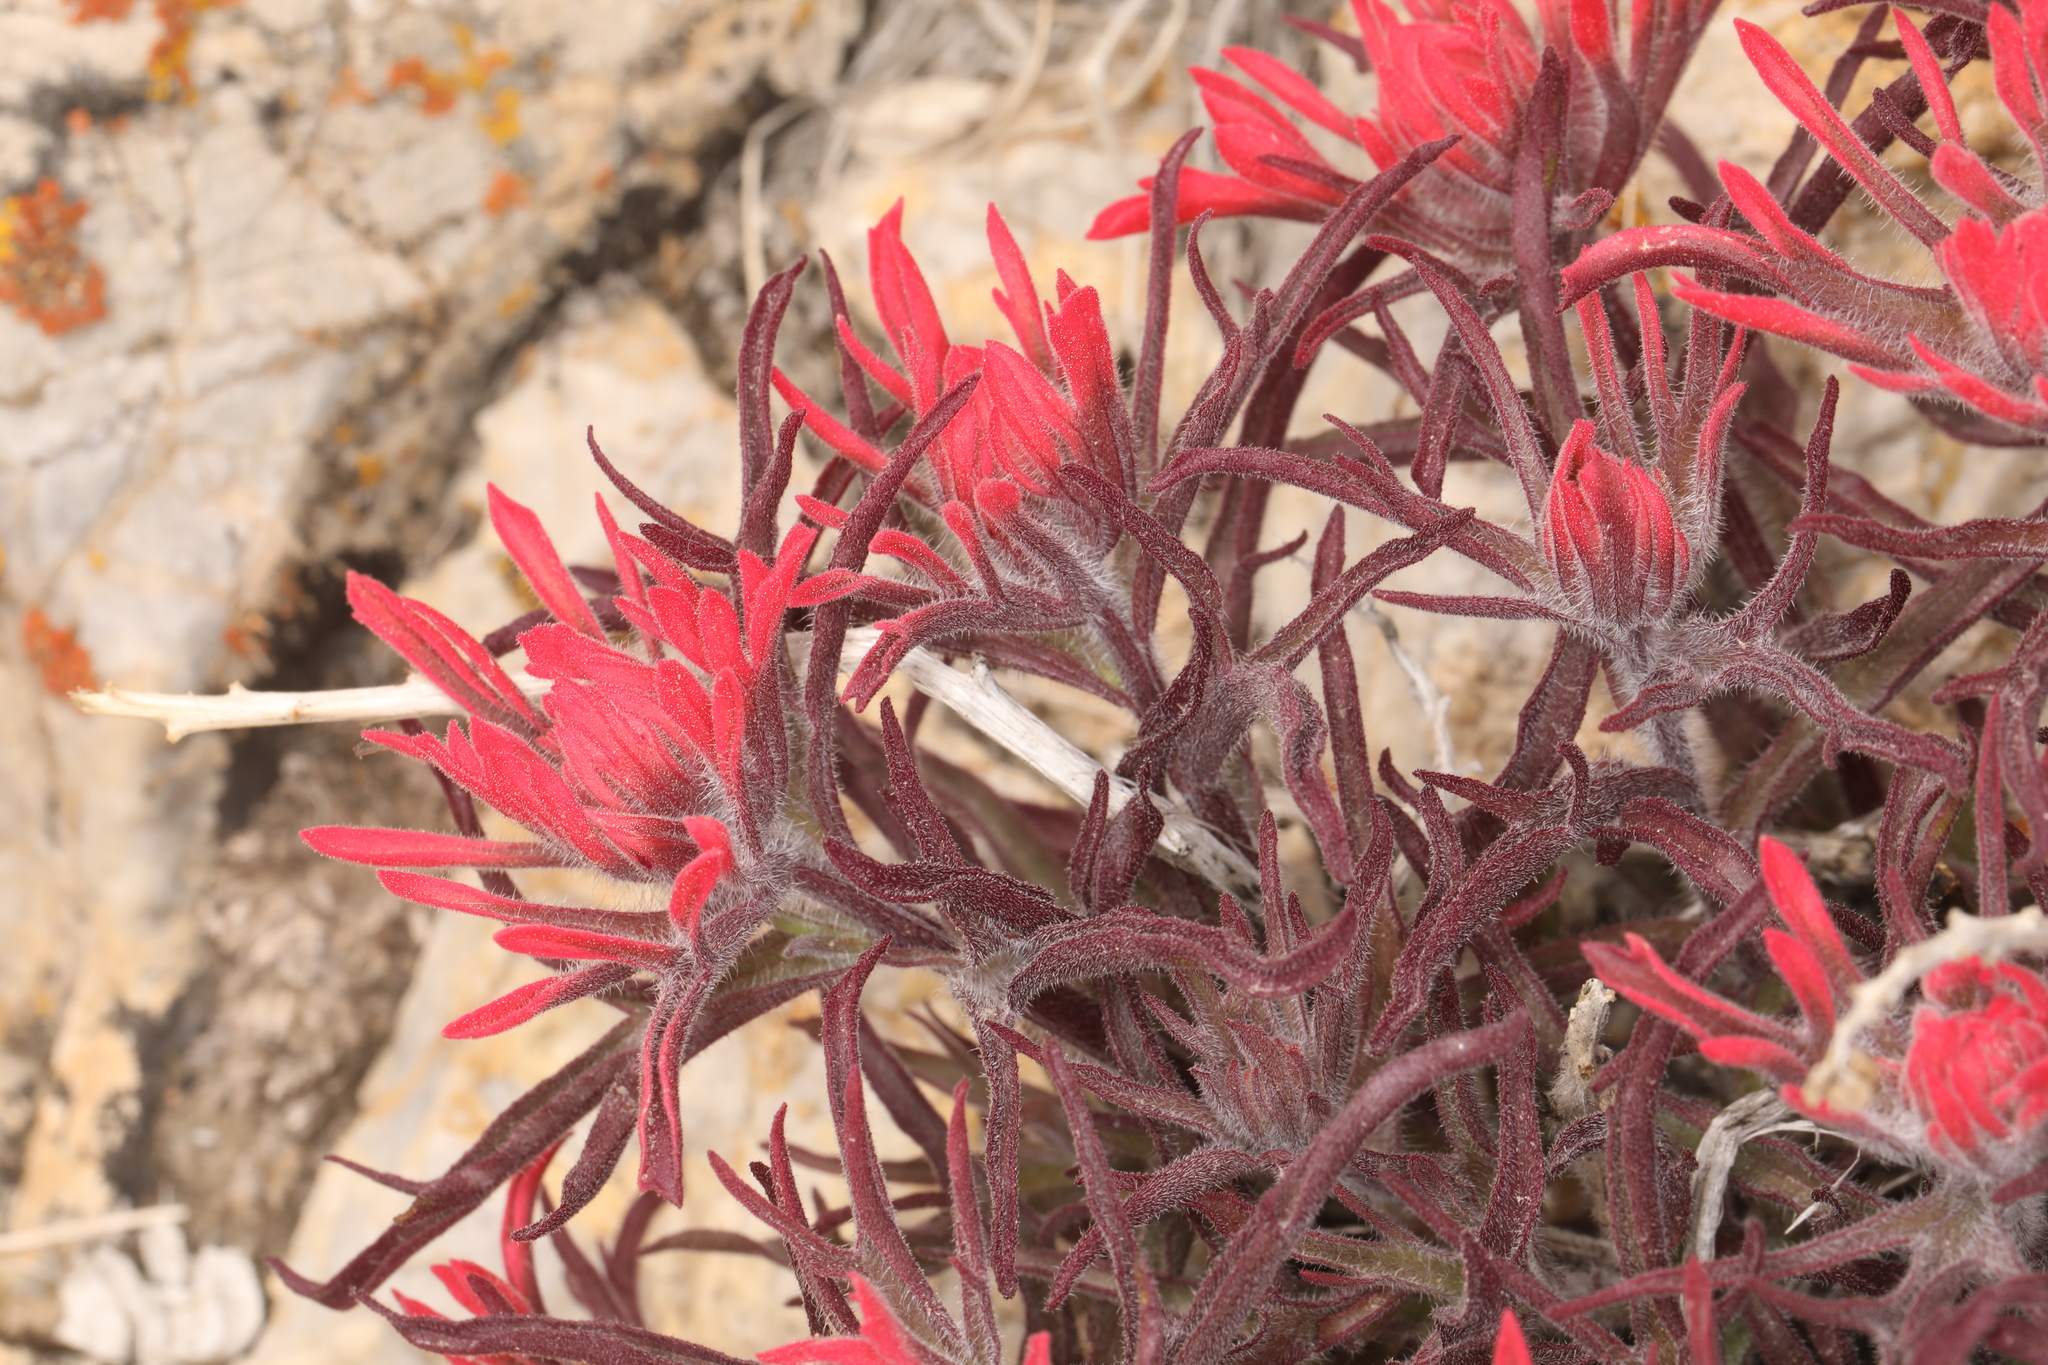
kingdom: Plantae
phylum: Tracheophyta
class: Magnoliopsida
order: Lamiales
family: Orobanchaceae
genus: Castilleja
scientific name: Castilleja chromosa
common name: Desert paintbrush
